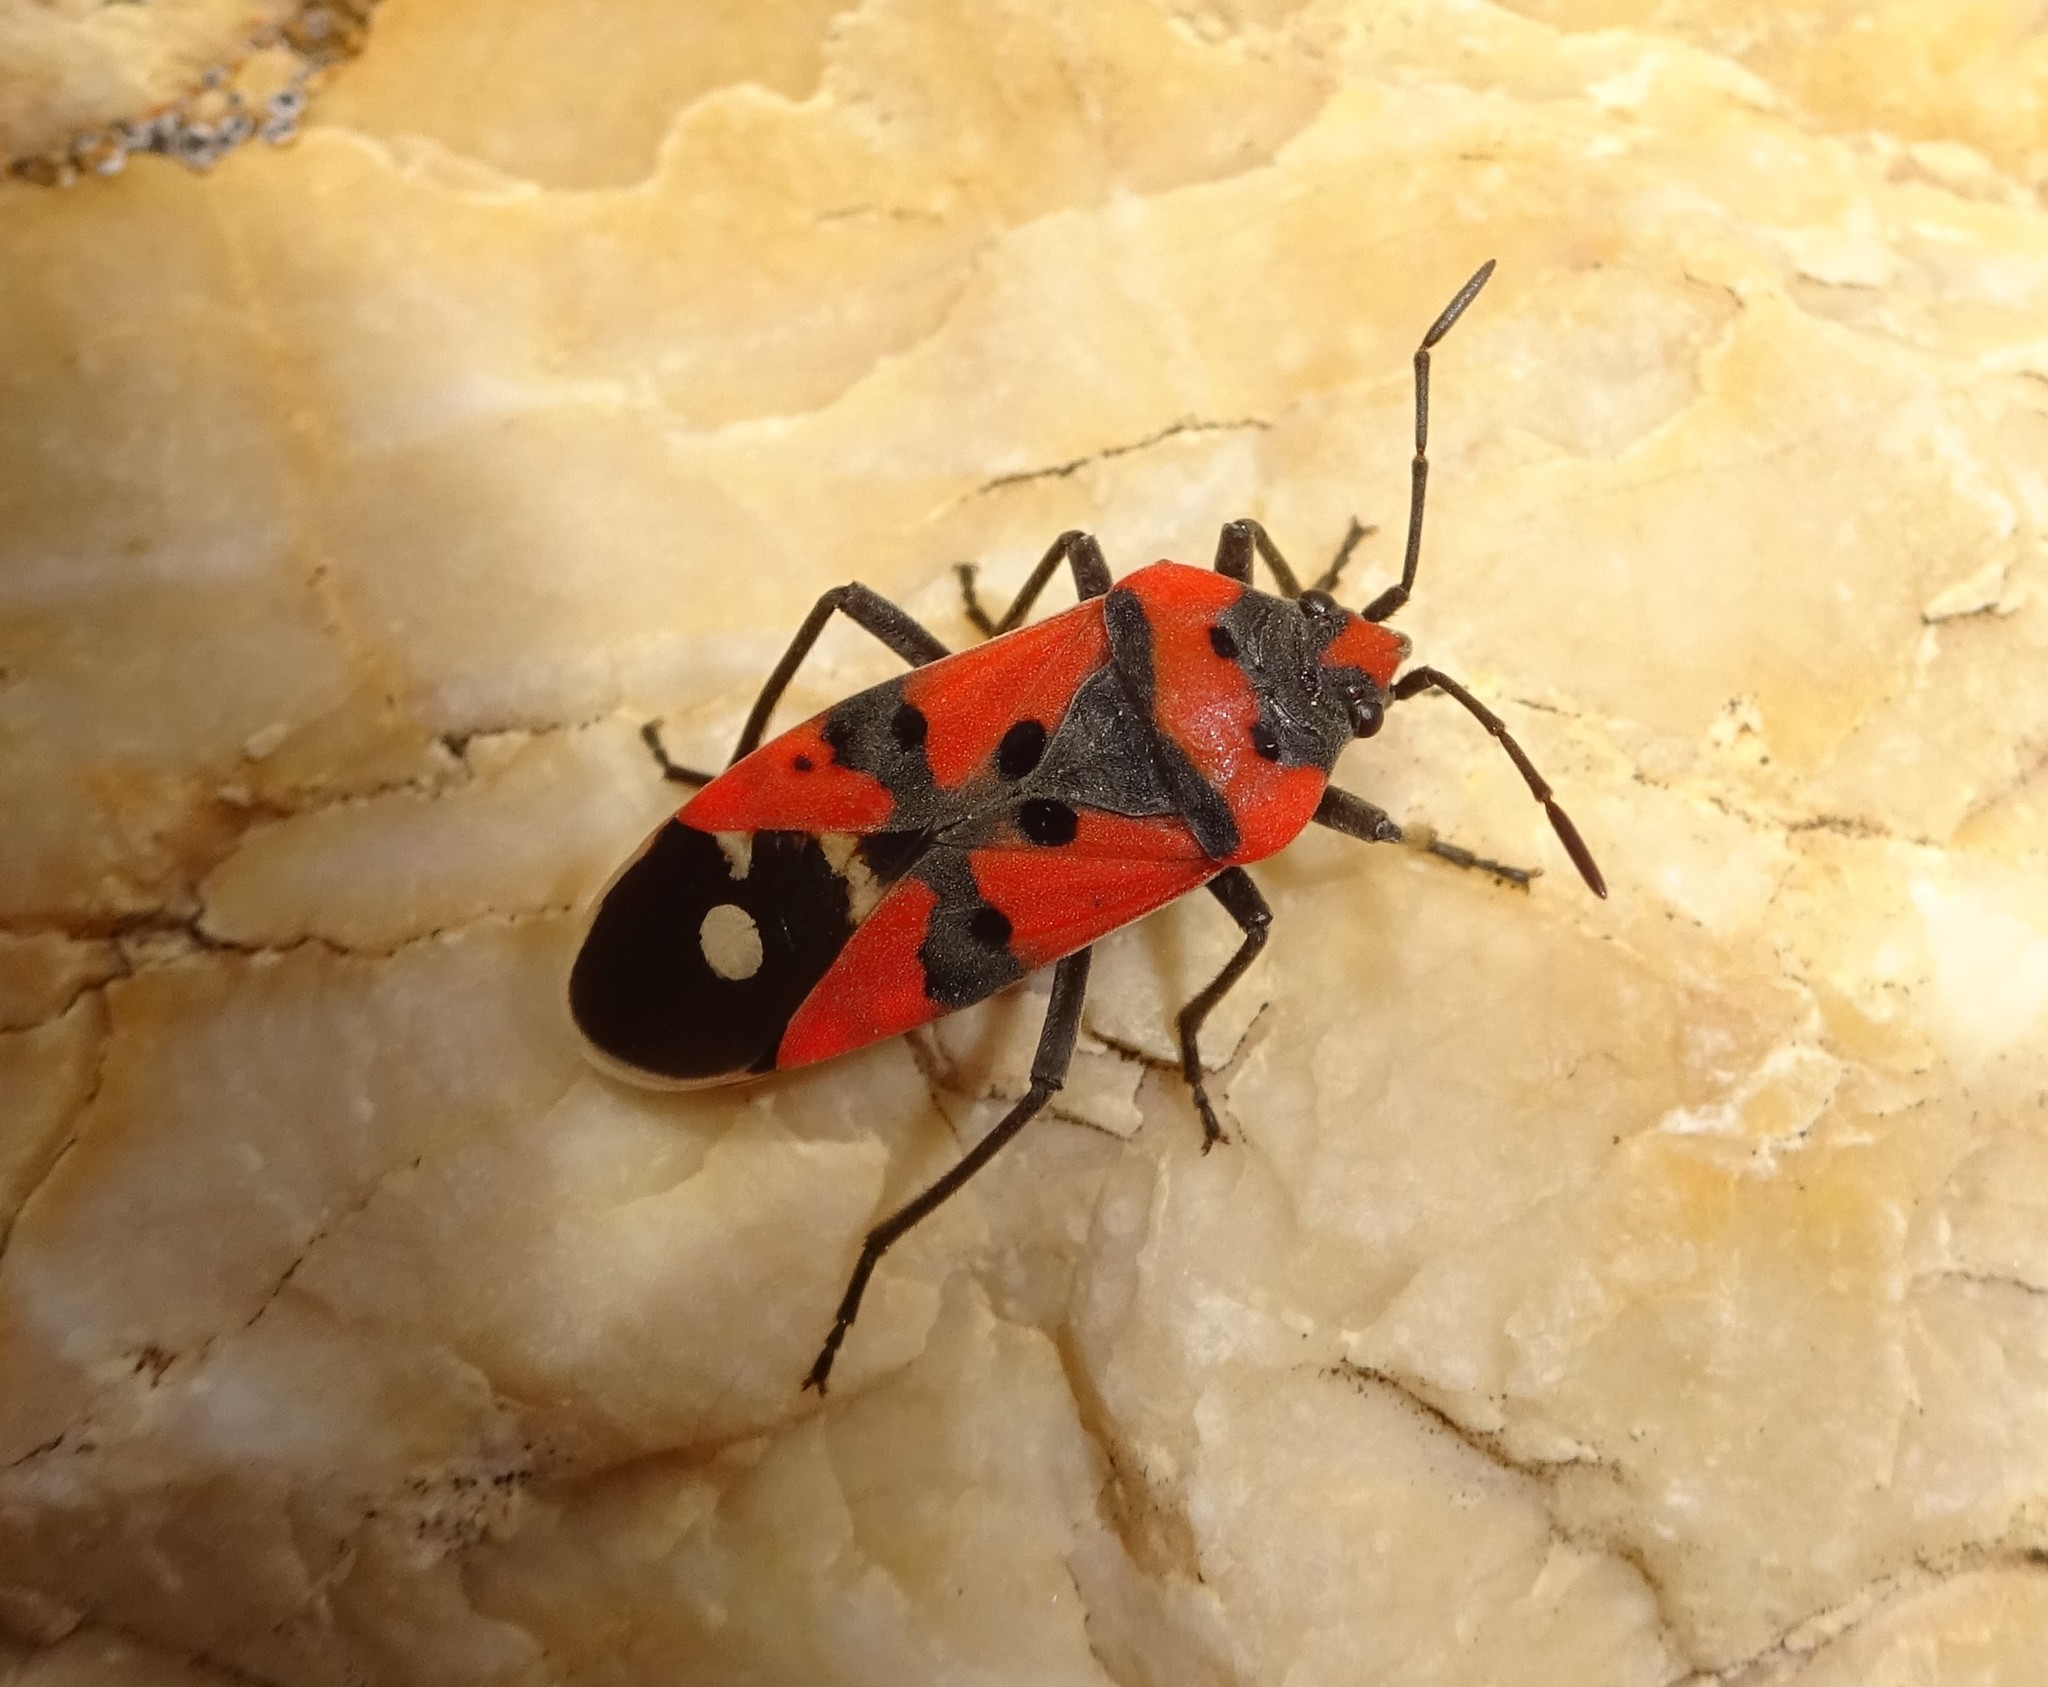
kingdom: Animalia
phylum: Arthropoda
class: Insecta
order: Hemiptera
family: Lygaeidae
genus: Lygaeus
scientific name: Lygaeus equestris
